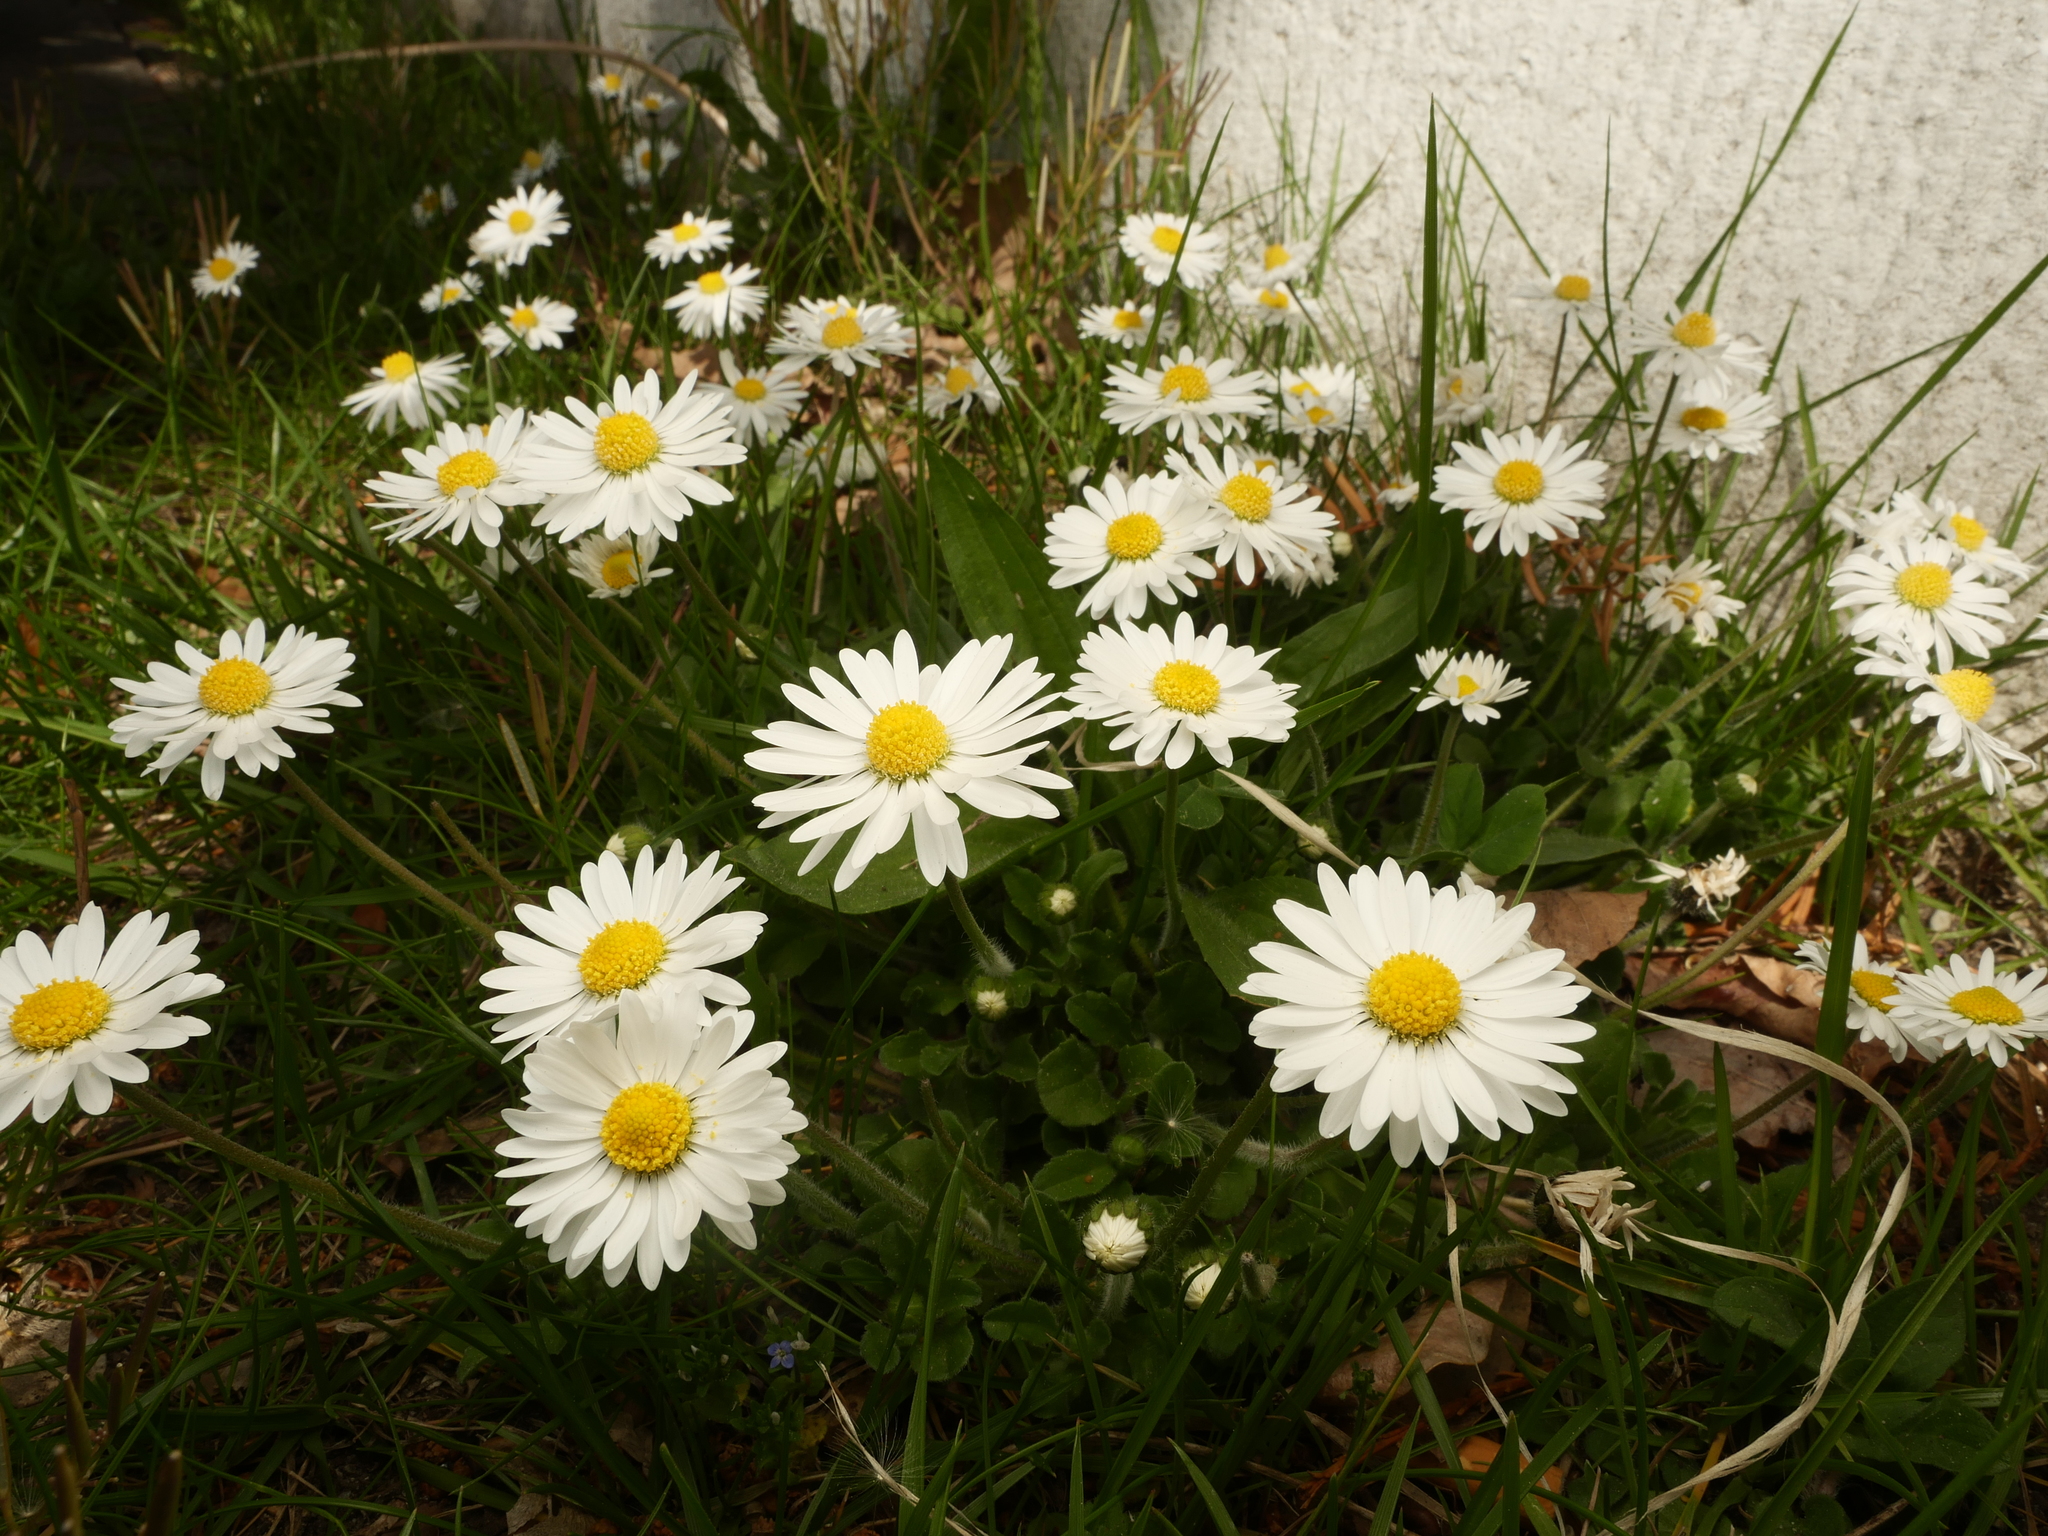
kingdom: Plantae
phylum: Tracheophyta
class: Magnoliopsida
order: Asterales
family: Asteraceae
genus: Bellis
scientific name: Bellis perennis
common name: Lawndaisy
